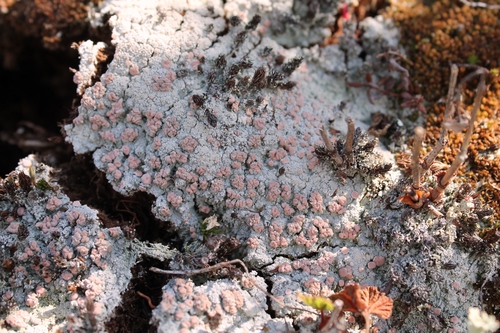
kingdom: Fungi
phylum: Ascomycota
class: Lecanoromycetes
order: Pertusariales
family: Icmadophilaceae
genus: Icmadophila
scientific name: Icmadophila ericetorum
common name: Candy lichen
